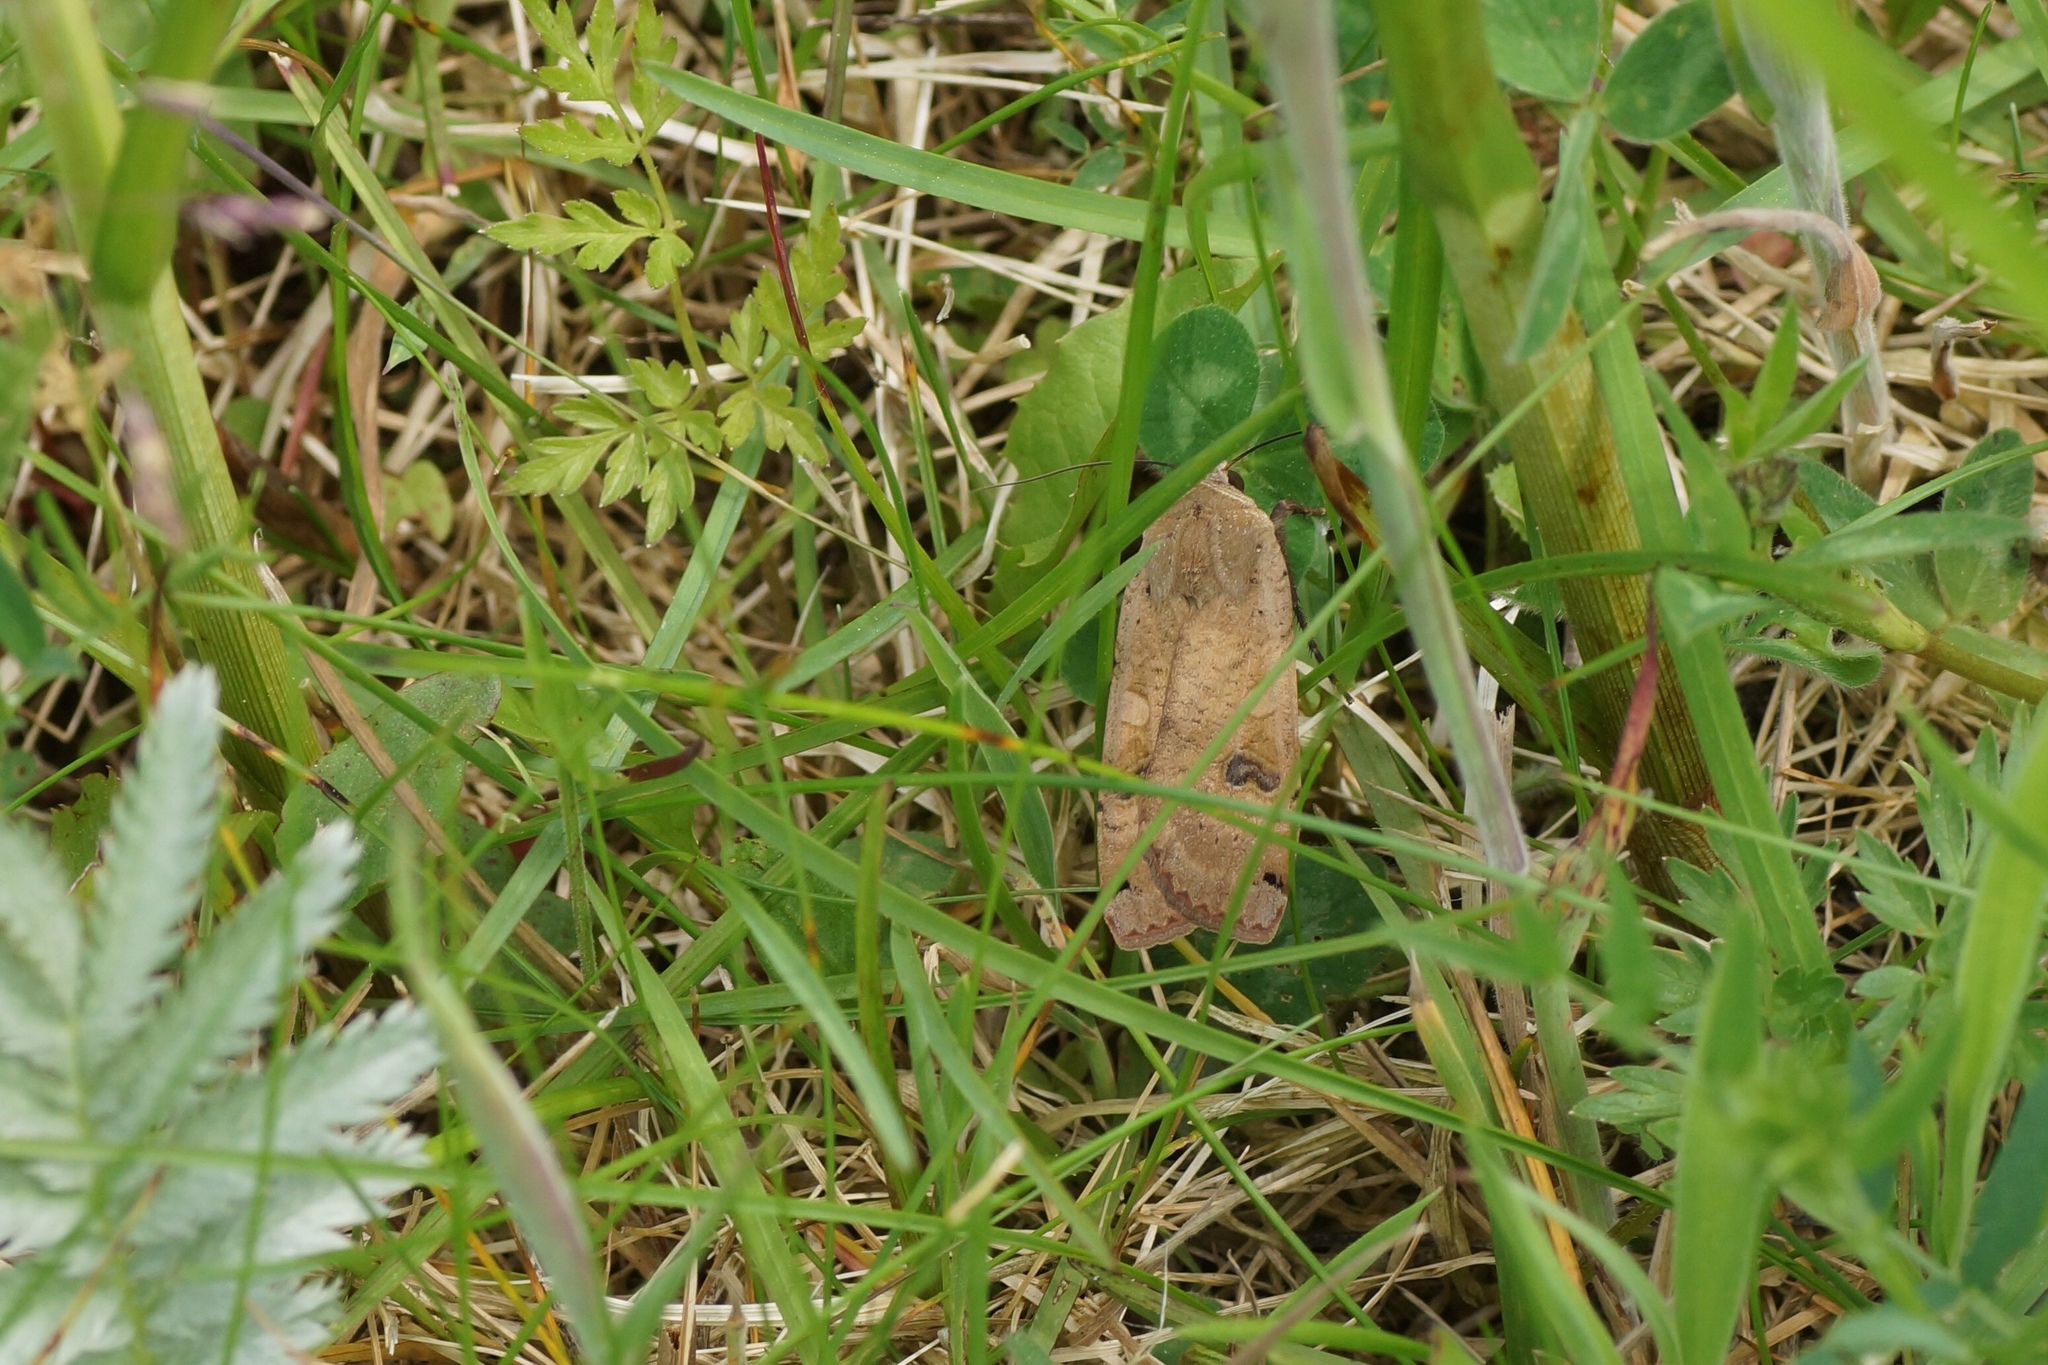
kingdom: Animalia
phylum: Arthropoda
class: Insecta
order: Lepidoptera
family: Noctuidae
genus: Noctua
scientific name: Noctua pronuba
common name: Large yellow underwing
